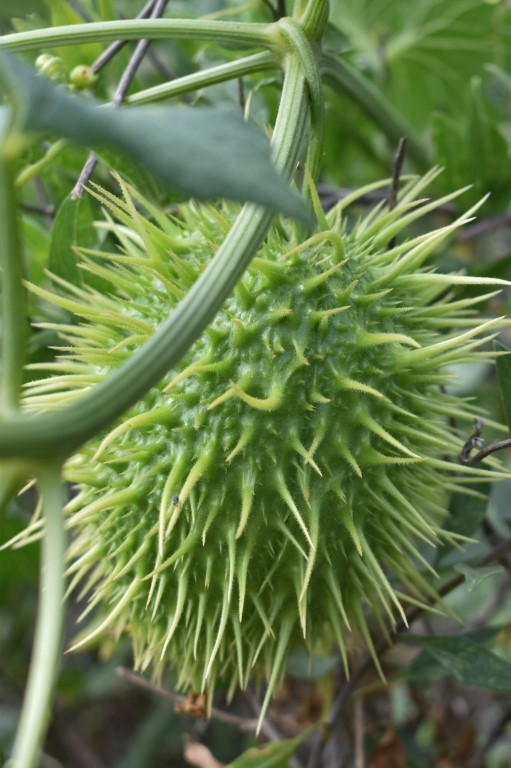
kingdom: Plantae
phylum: Tracheophyta
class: Magnoliopsida
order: Cucurbitales
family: Cucurbitaceae
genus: Marah
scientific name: Marah macrocarpa
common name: Cucamonga manroot
